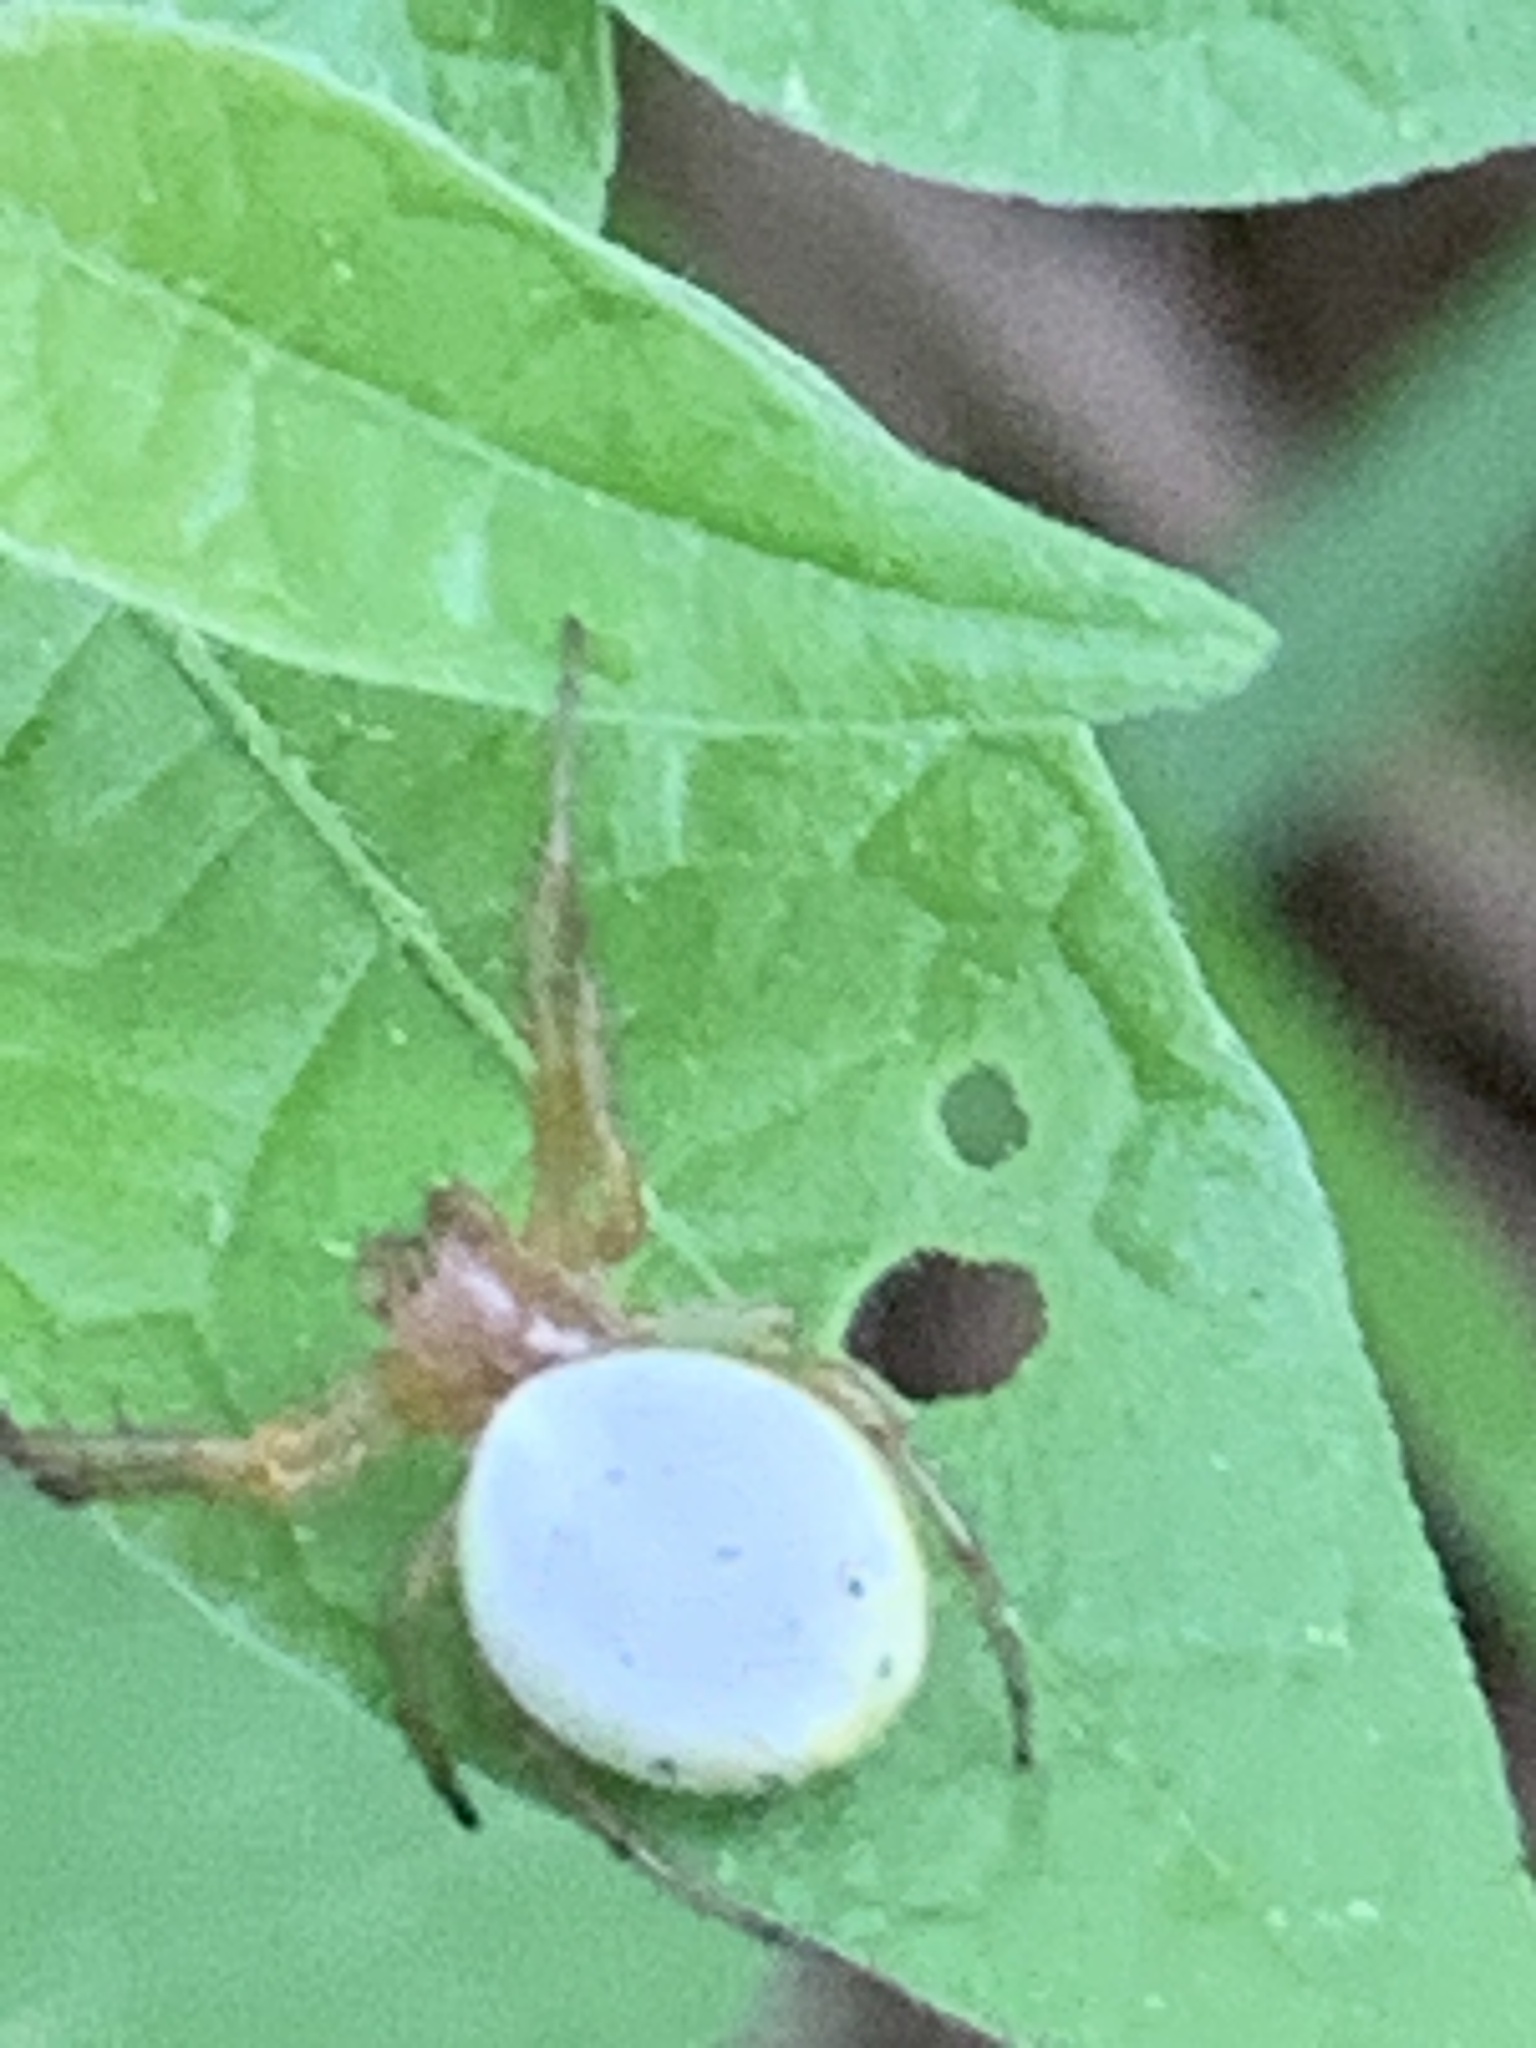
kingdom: Animalia
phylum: Arthropoda
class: Arachnida
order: Araneae
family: Araneidae
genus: Araniella
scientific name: Araniella displicata
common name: Sixspotted orb weaver
